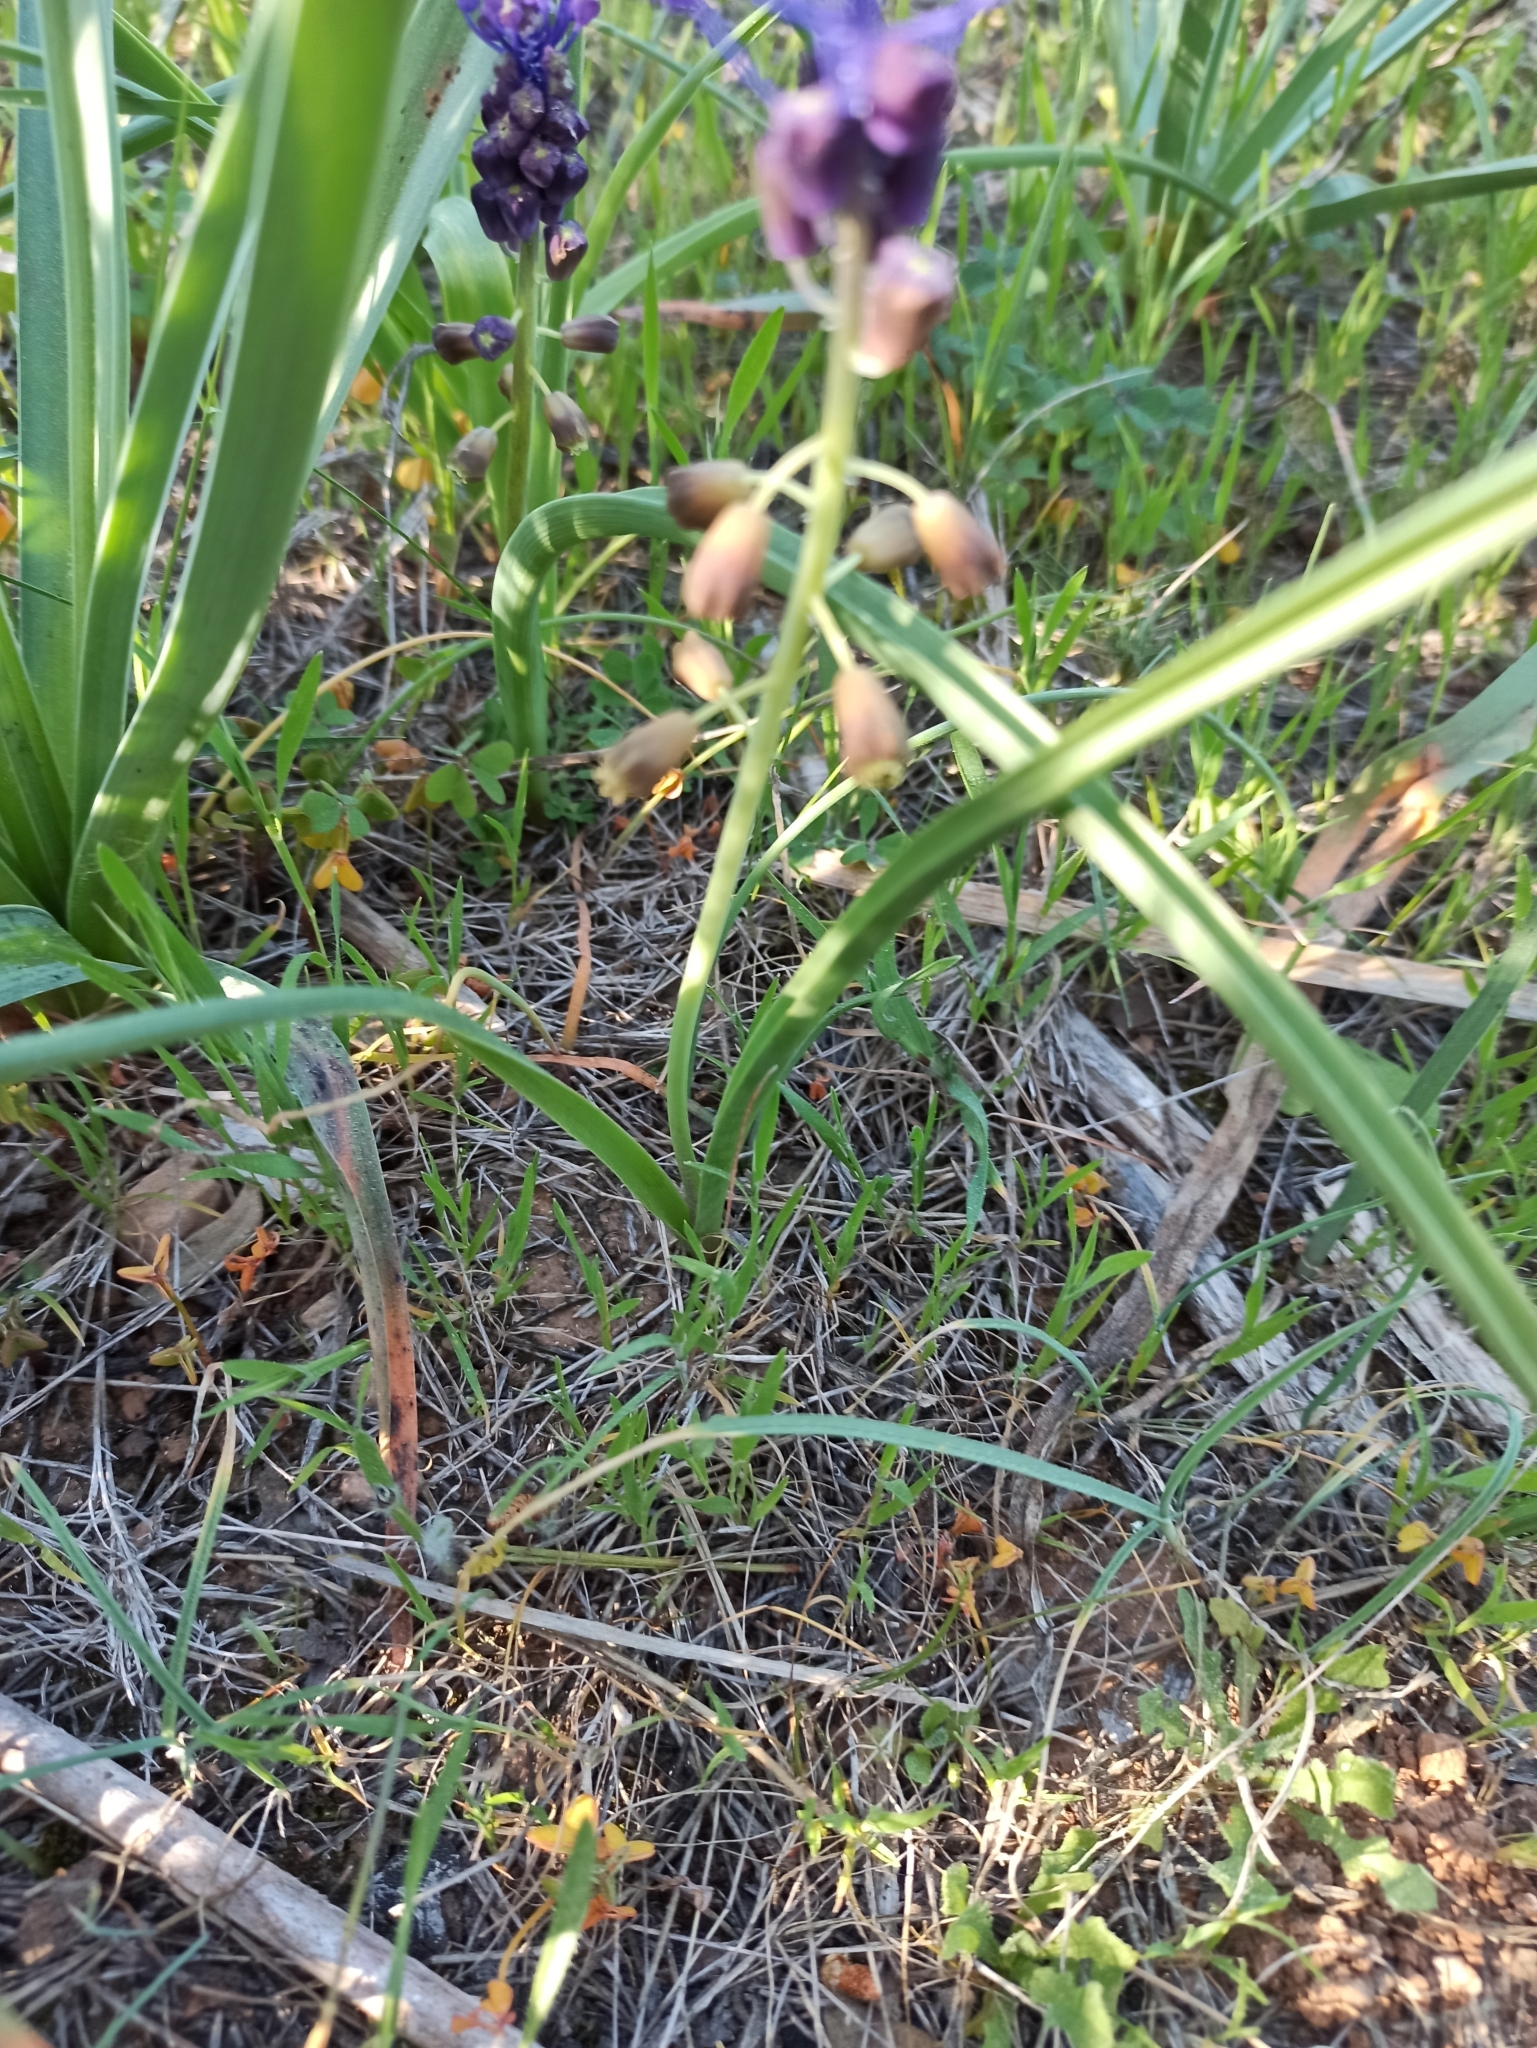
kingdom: Plantae
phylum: Tracheophyta
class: Liliopsida
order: Asparagales
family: Asparagaceae
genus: Muscari
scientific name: Muscari comosum
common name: Tassel hyacinth
